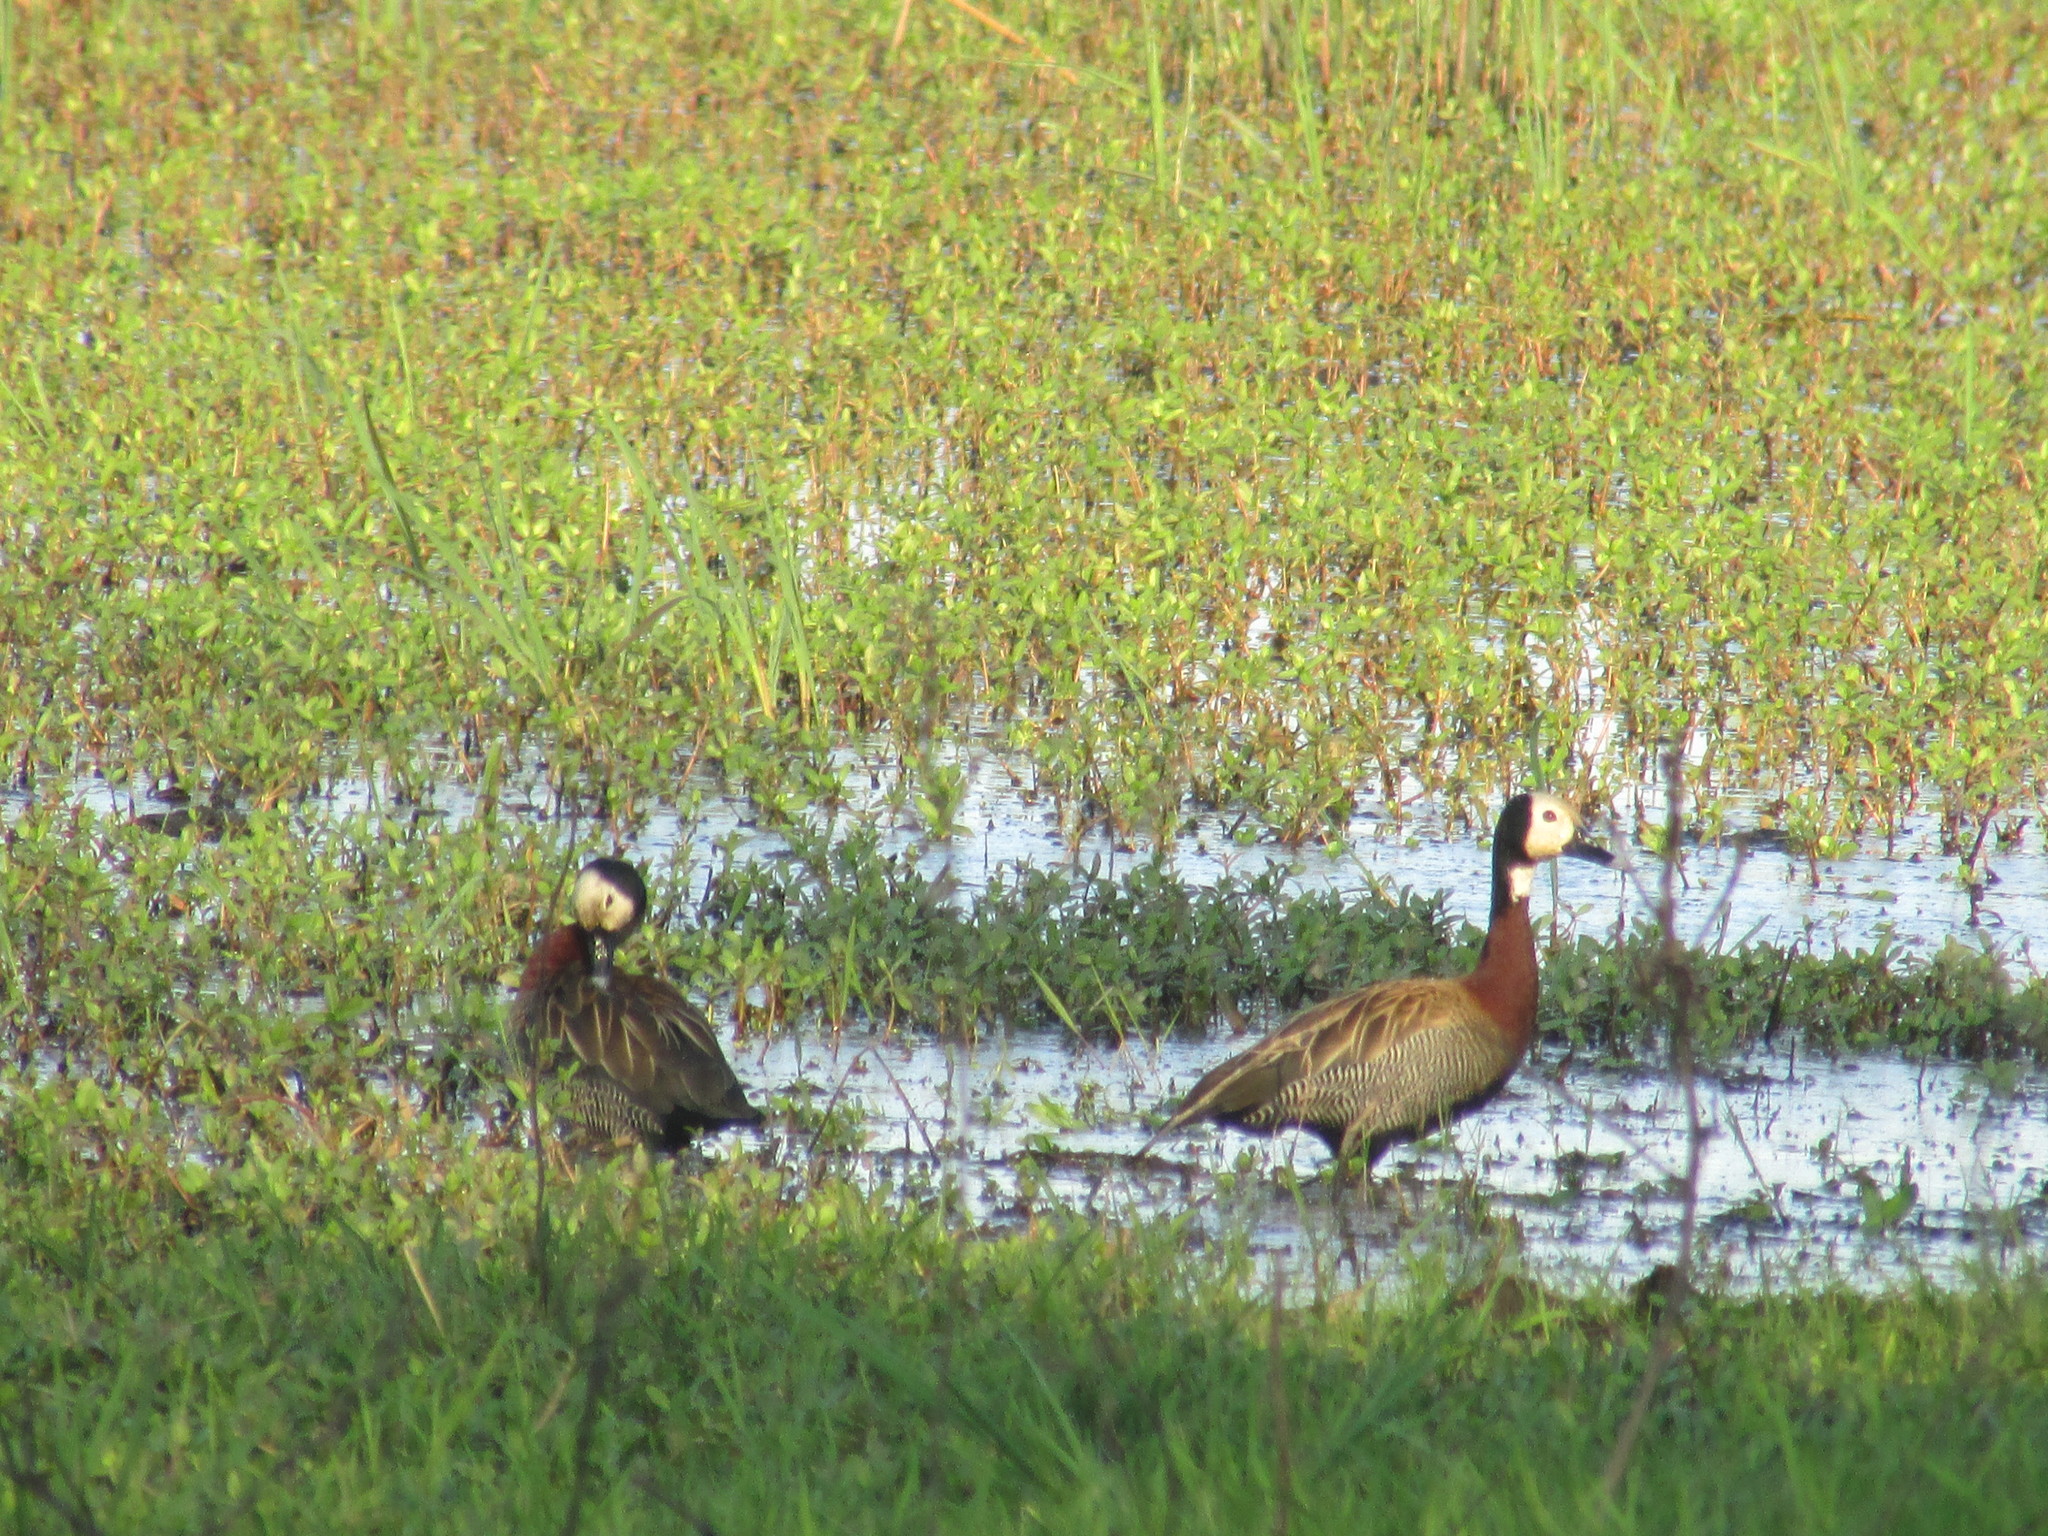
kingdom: Animalia
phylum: Chordata
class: Aves
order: Anseriformes
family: Anatidae
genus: Dendrocygna
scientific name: Dendrocygna viduata
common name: White-faced whistling duck
